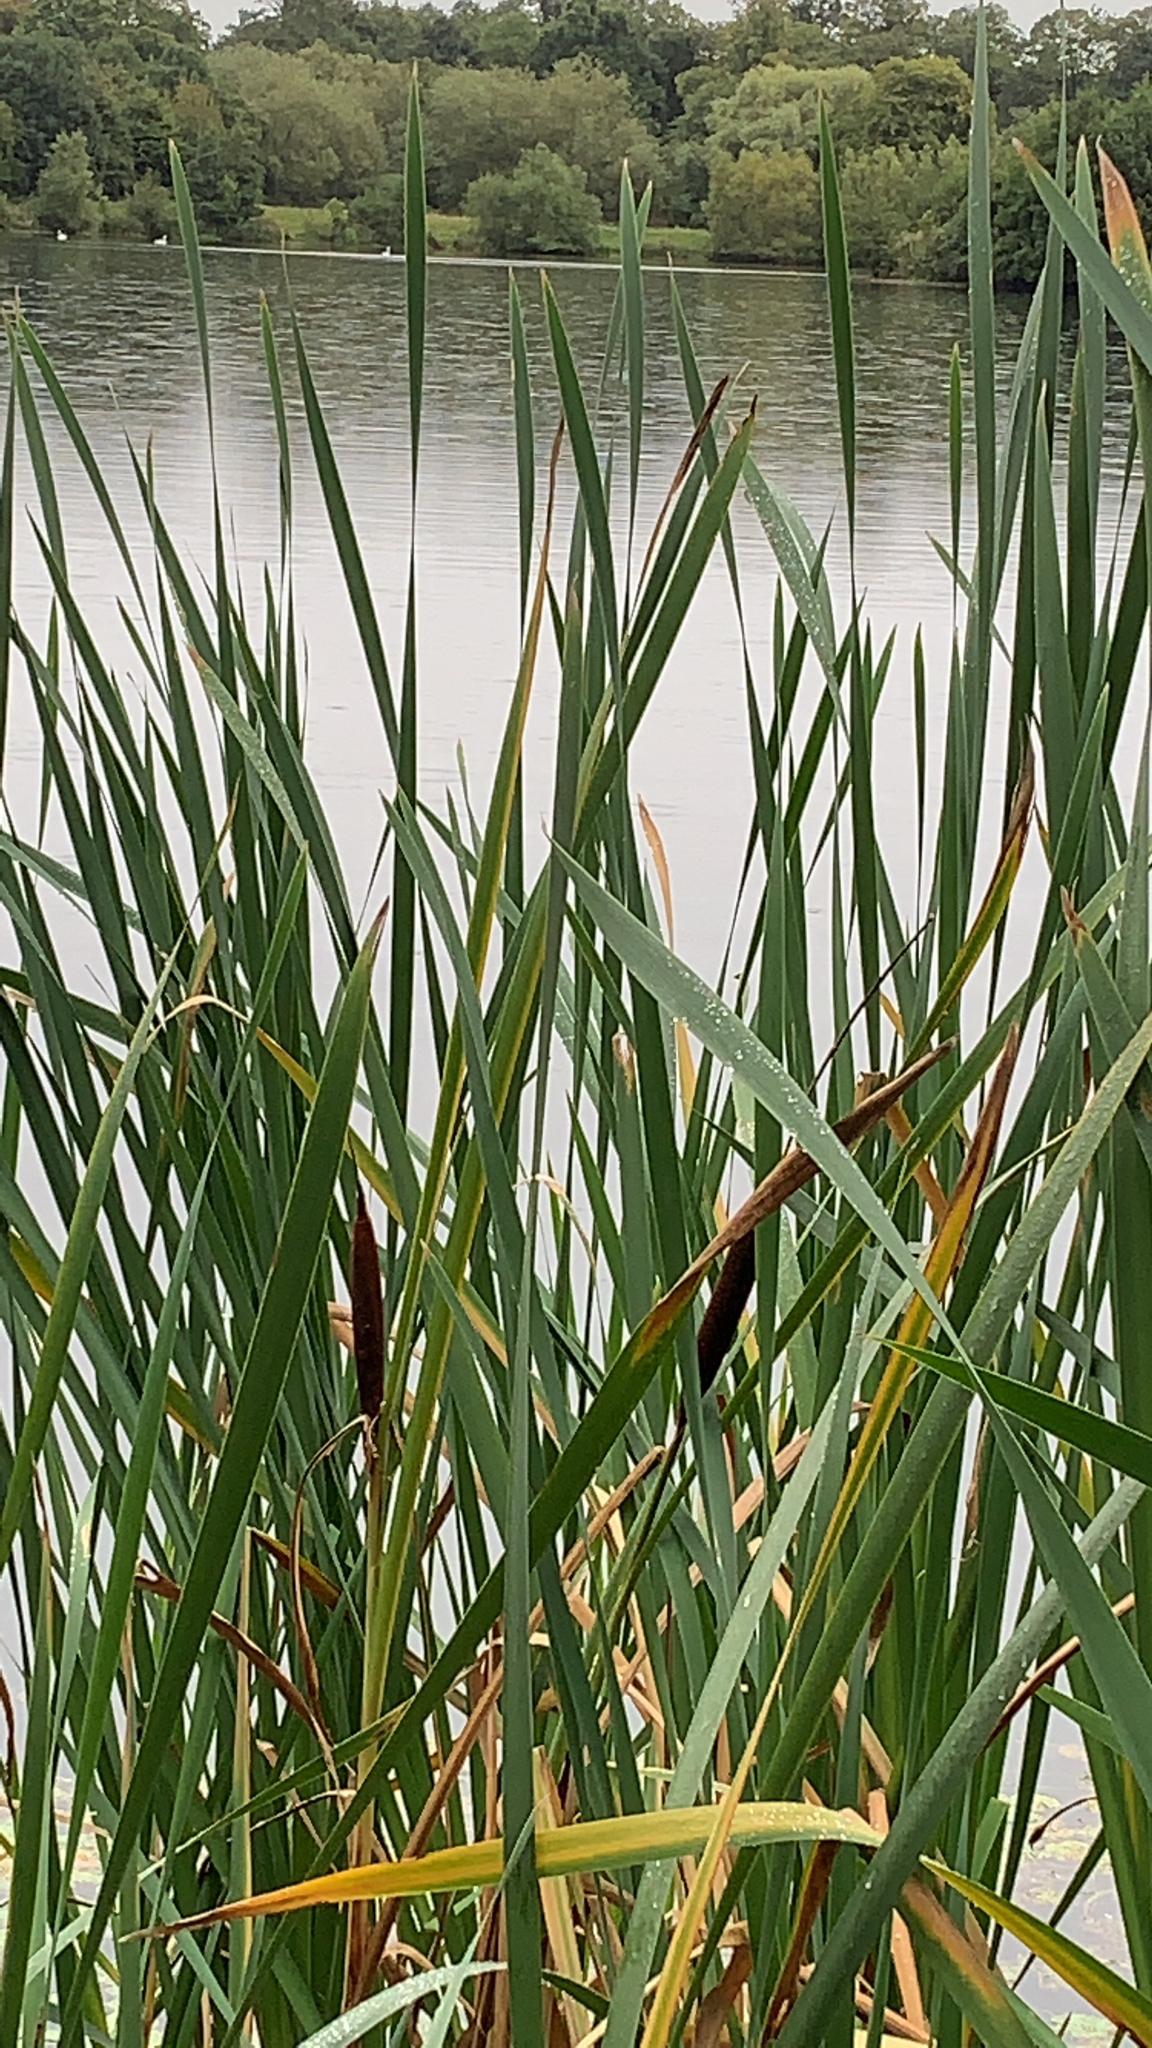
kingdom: Plantae
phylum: Tracheophyta
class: Liliopsida
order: Poales
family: Typhaceae
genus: Typha
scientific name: Typha latifolia
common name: Broadleaf cattail
